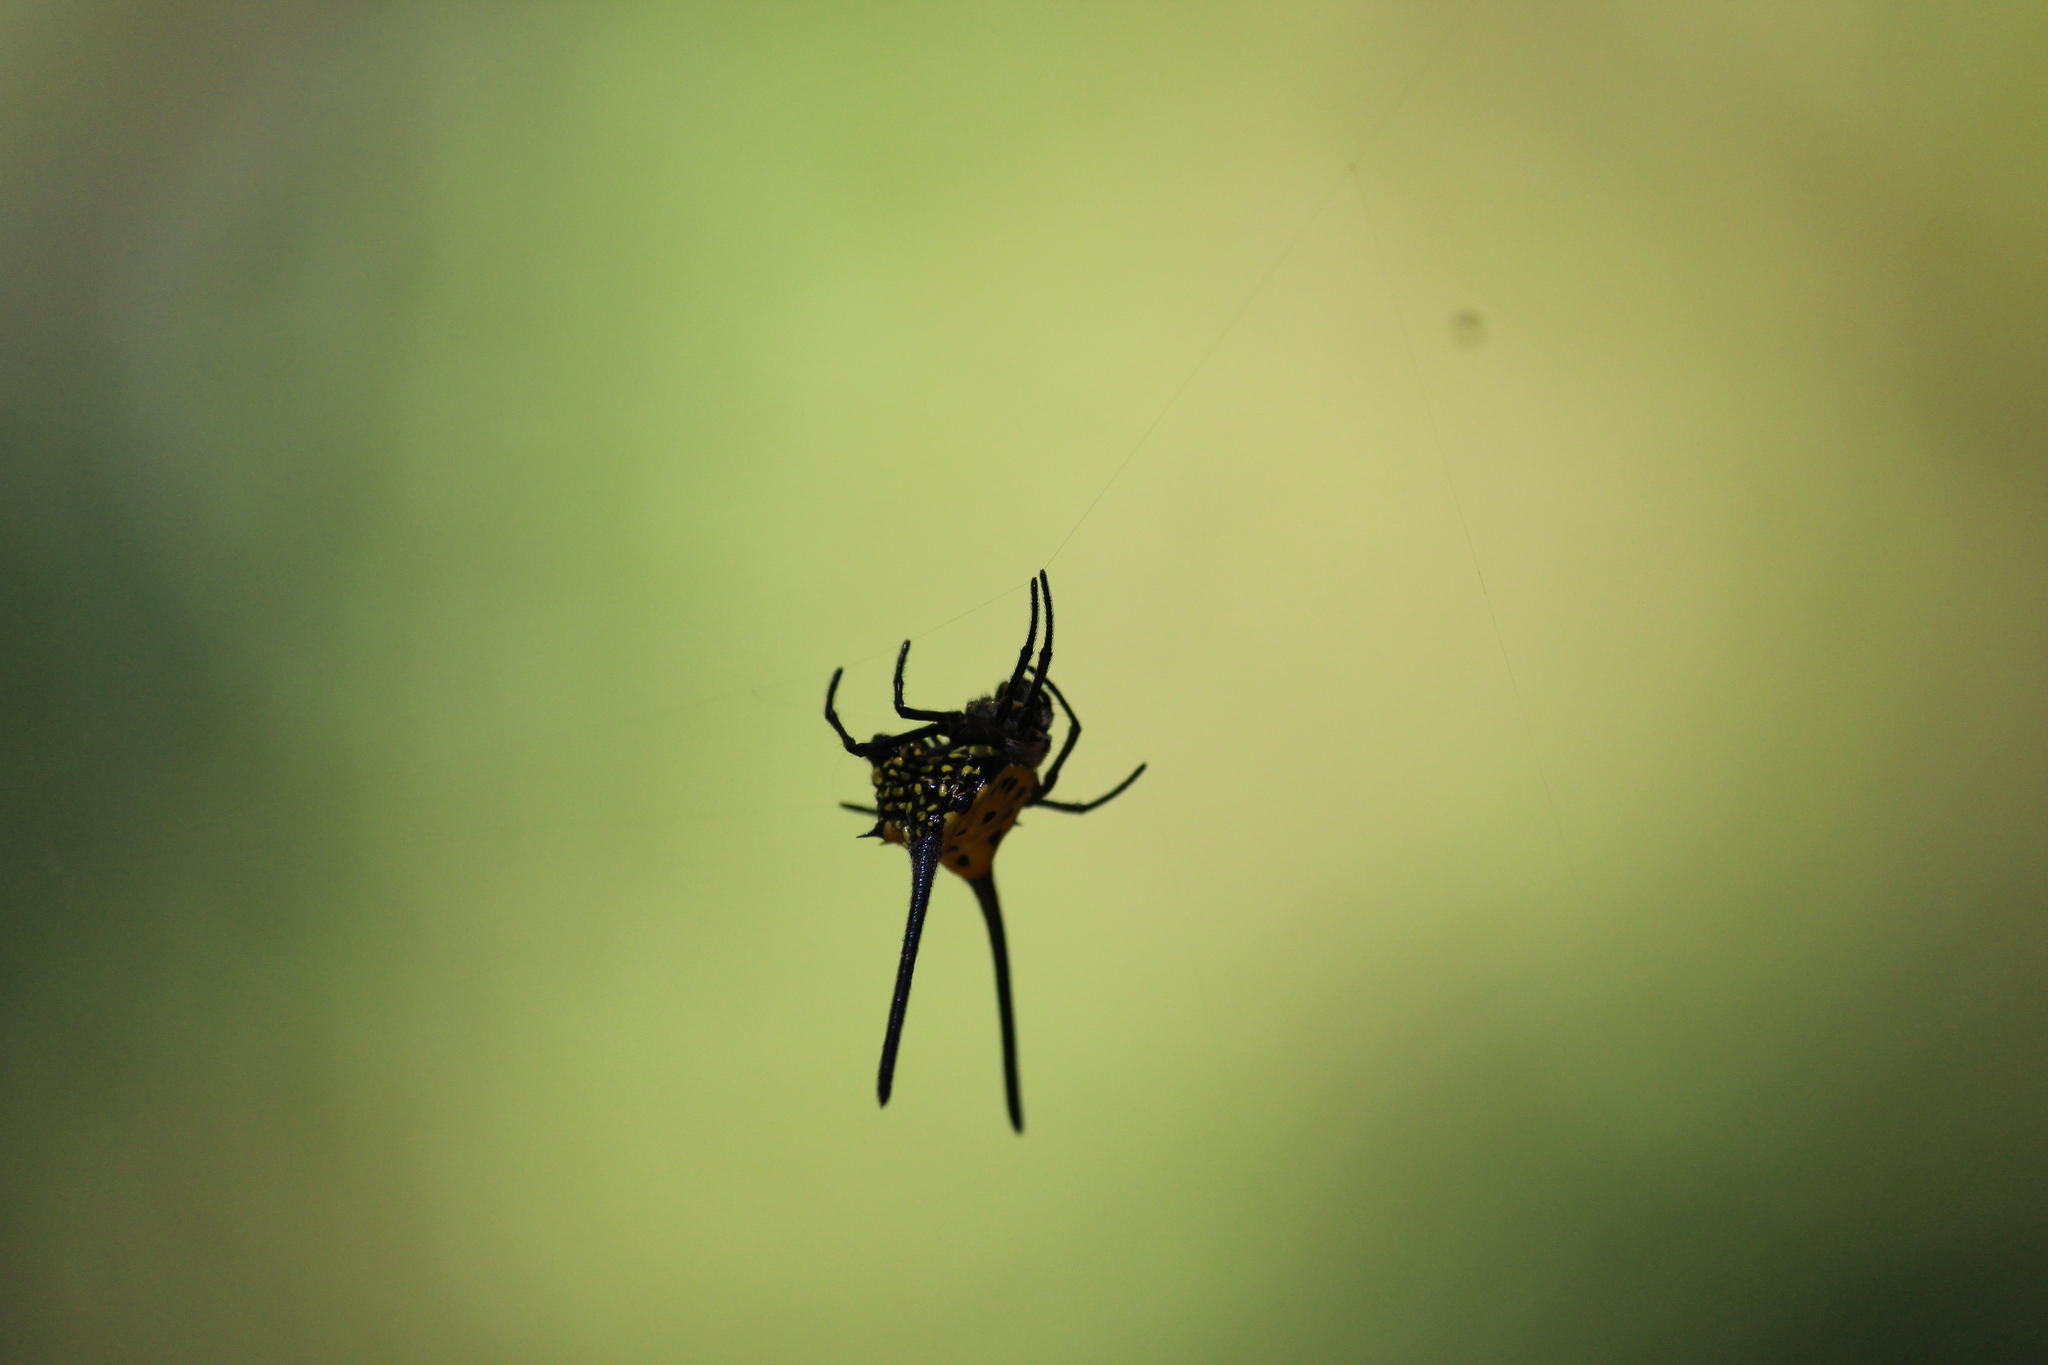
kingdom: Animalia
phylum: Arthropoda
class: Arachnida
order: Araneae
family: Araneidae
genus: Gasteracantha
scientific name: Gasteracantha dalyi
